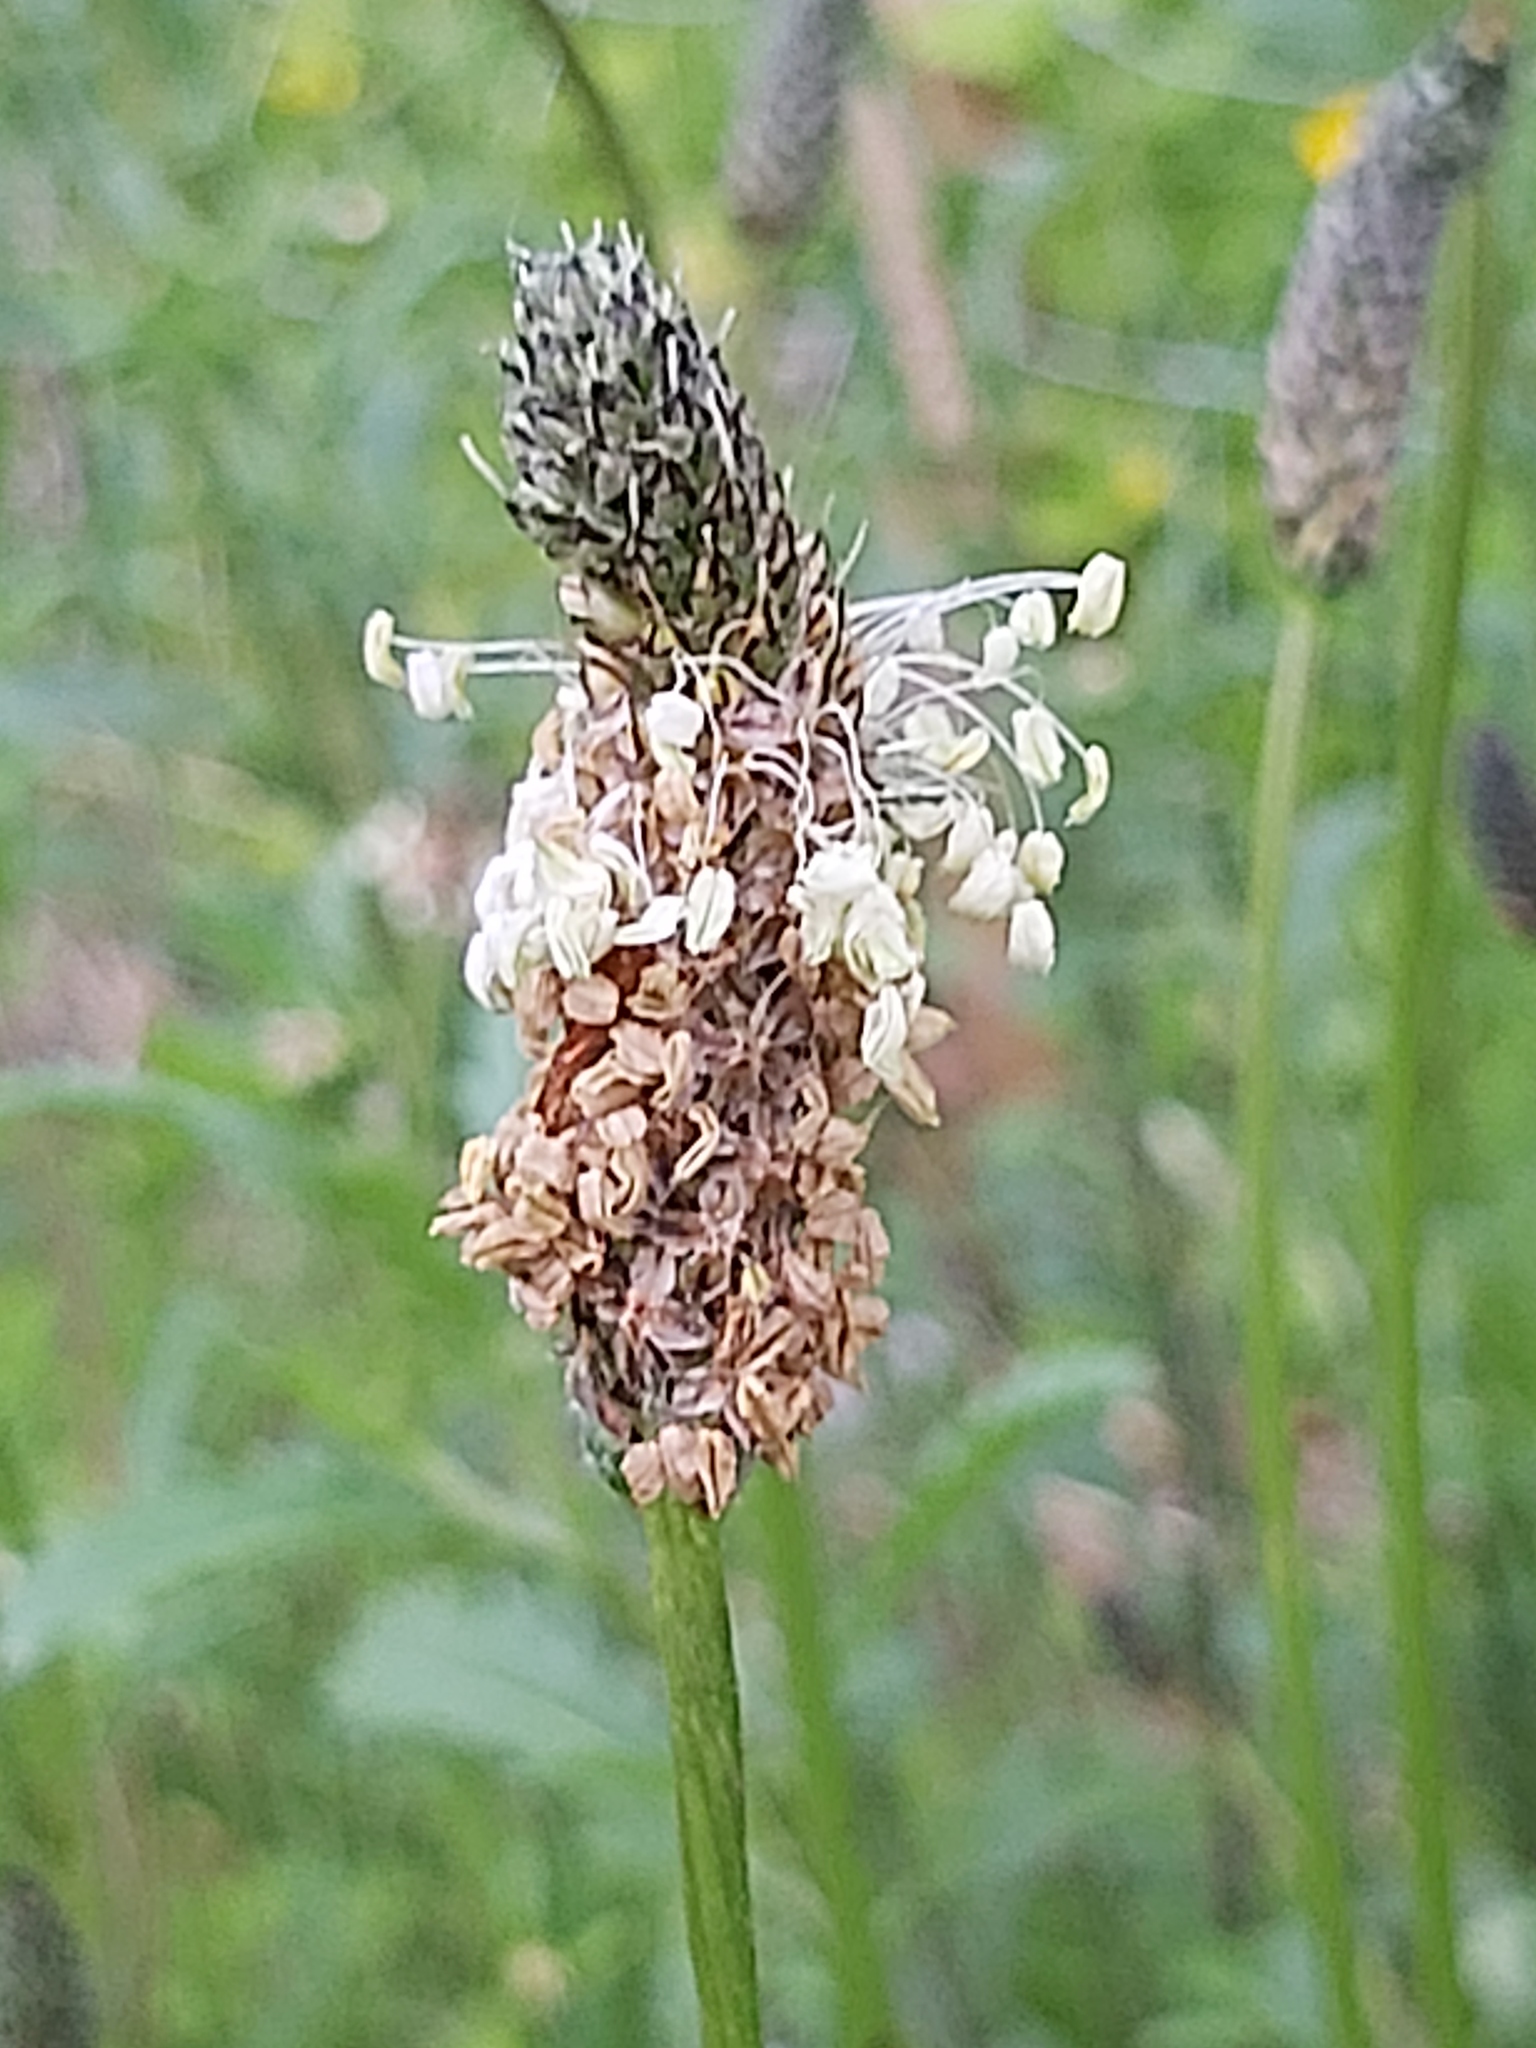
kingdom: Plantae
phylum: Tracheophyta
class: Magnoliopsida
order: Lamiales
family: Plantaginaceae
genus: Plantago
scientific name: Plantago lanceolata
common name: Ribwort plantain
